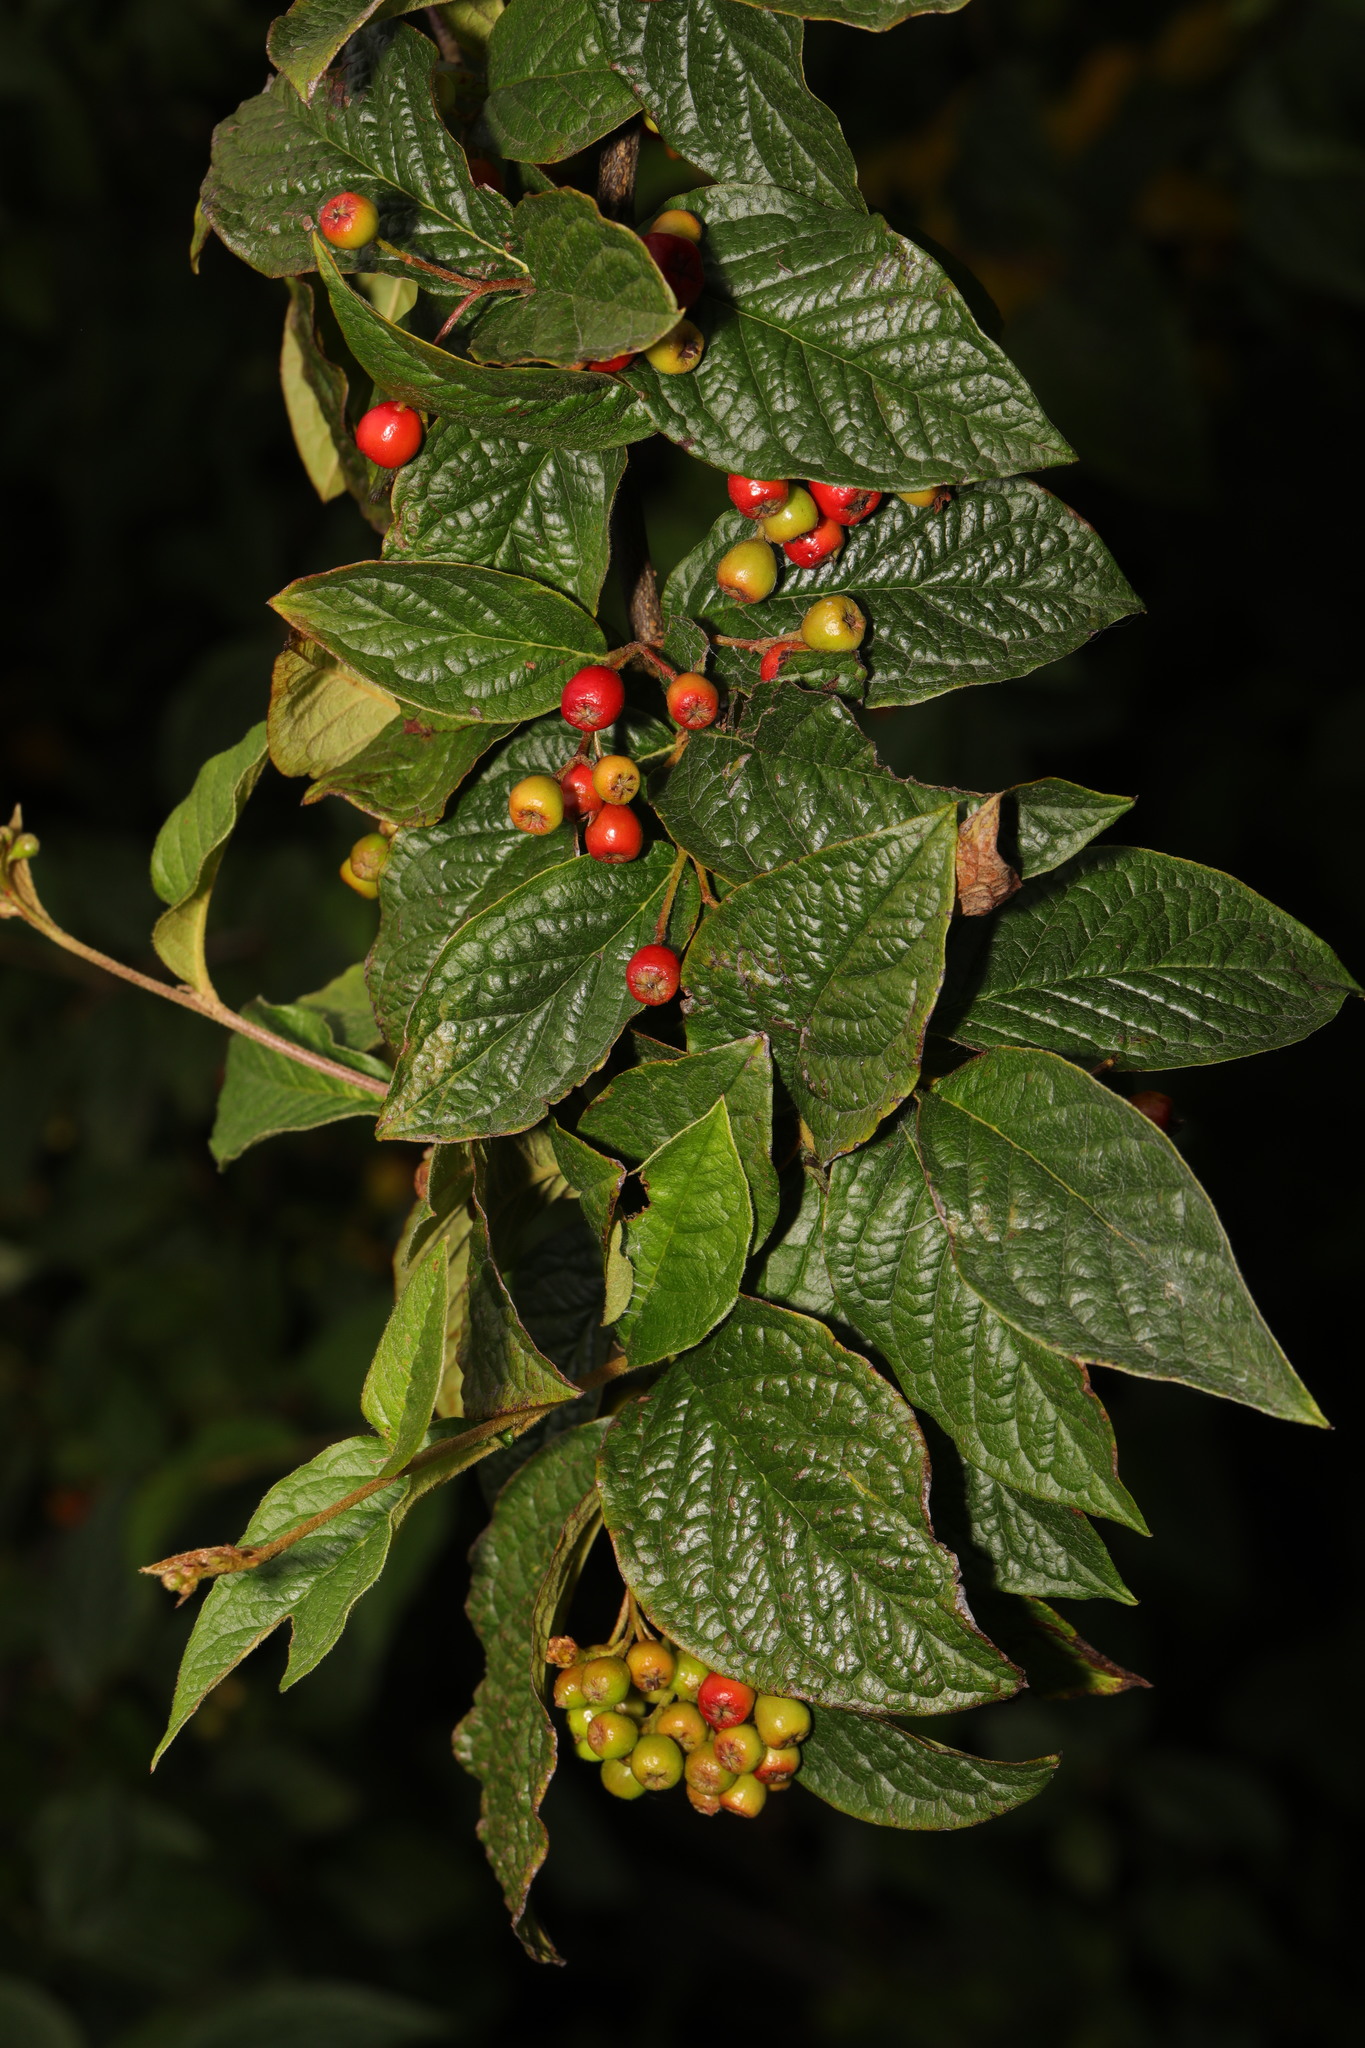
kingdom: Plantae
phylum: Tracheophyta
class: Magnoliopsida
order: Rosales
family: Rosaceae
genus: Cotoneaster
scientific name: Cotoneaster bullatus
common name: Hollyberry cotoneaster
